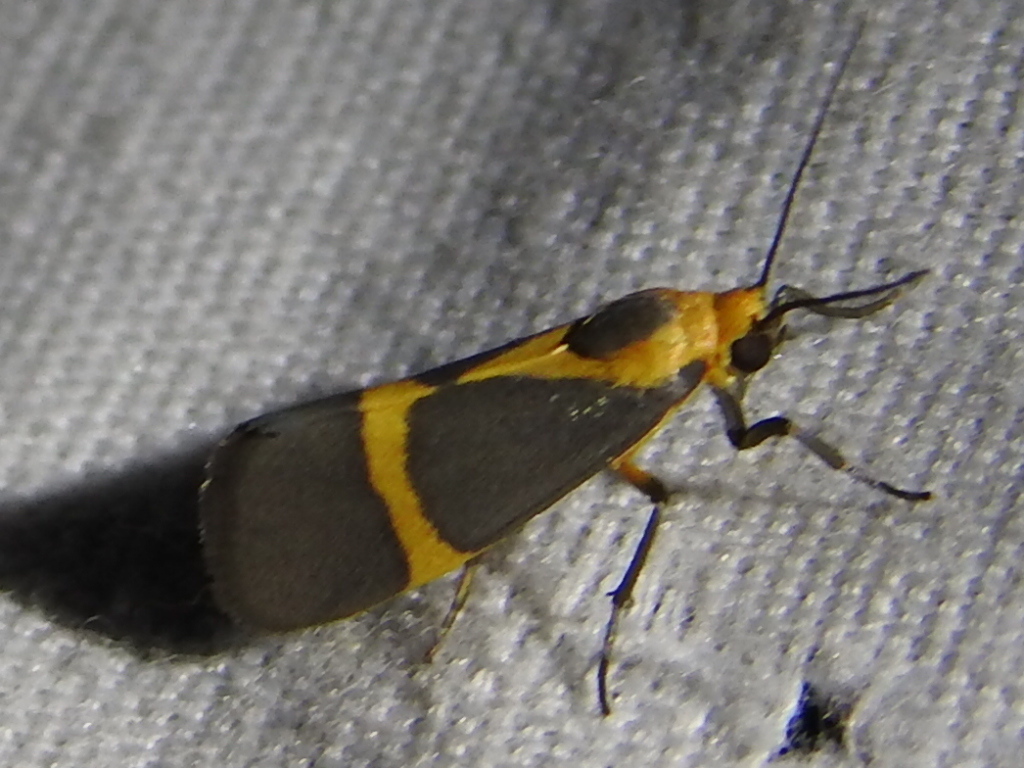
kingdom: Animalia
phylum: Arthropoda
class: Insecta
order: Lepidoptera
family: Erebidae
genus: Cisthene
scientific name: Cisthene tenuifascia
